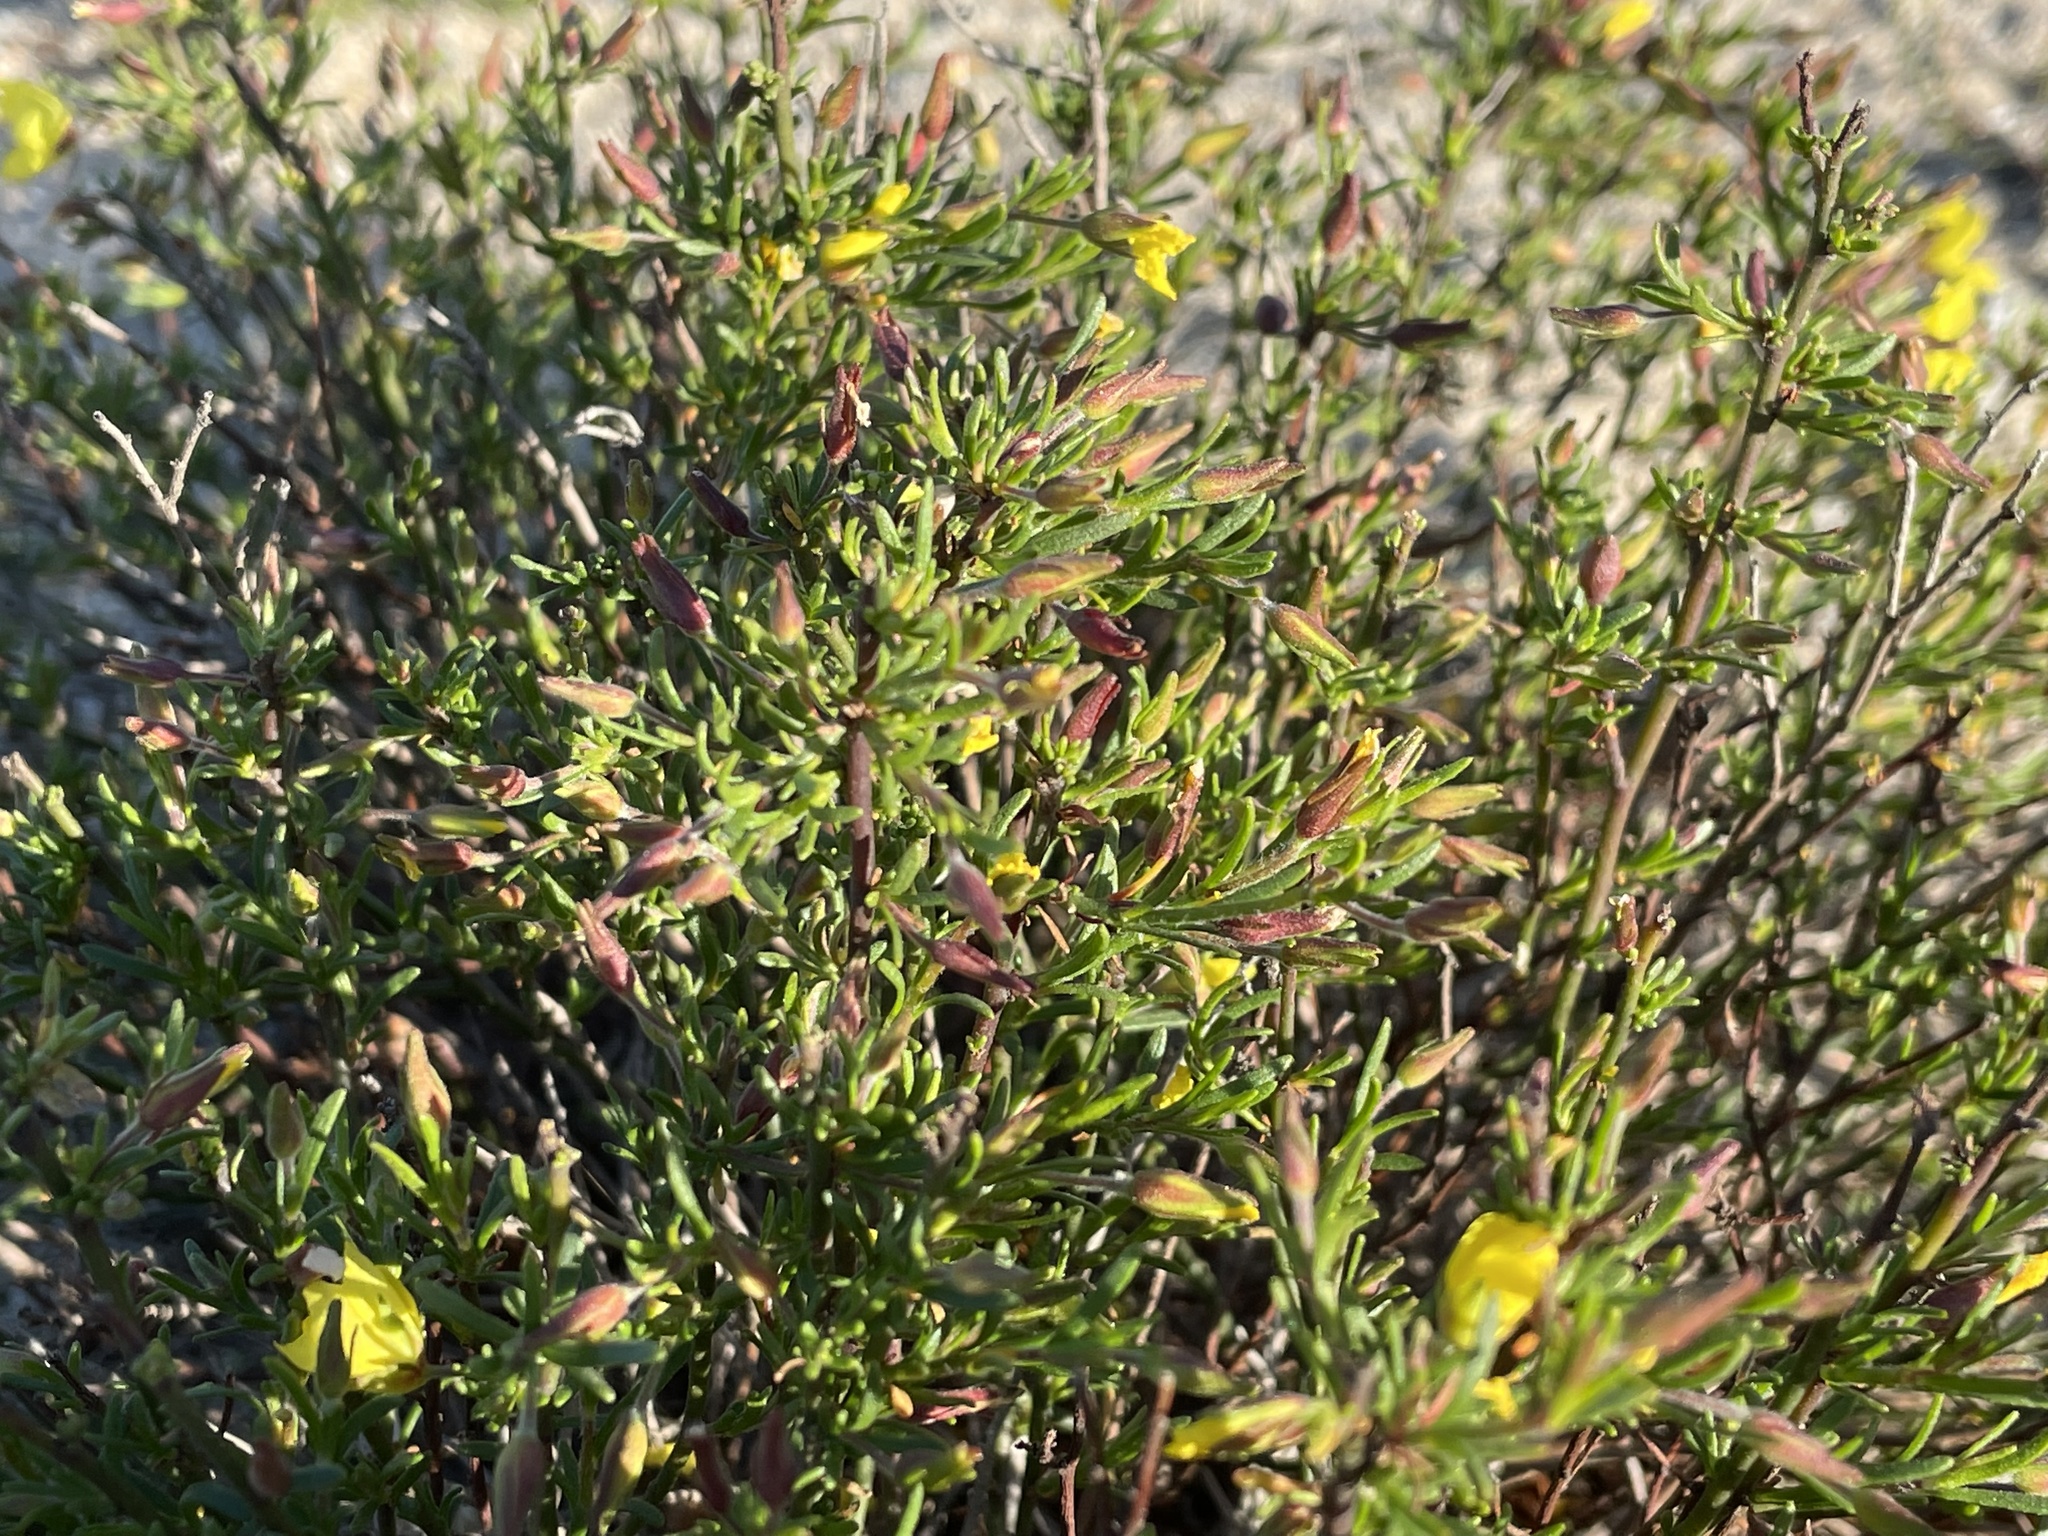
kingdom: Plantae
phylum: Tracheophyta
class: Magnoliopsida
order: Malvales
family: Cistaceae
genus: Crocanthemum
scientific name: Crocanthemum scoparium
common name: Broom-rose
